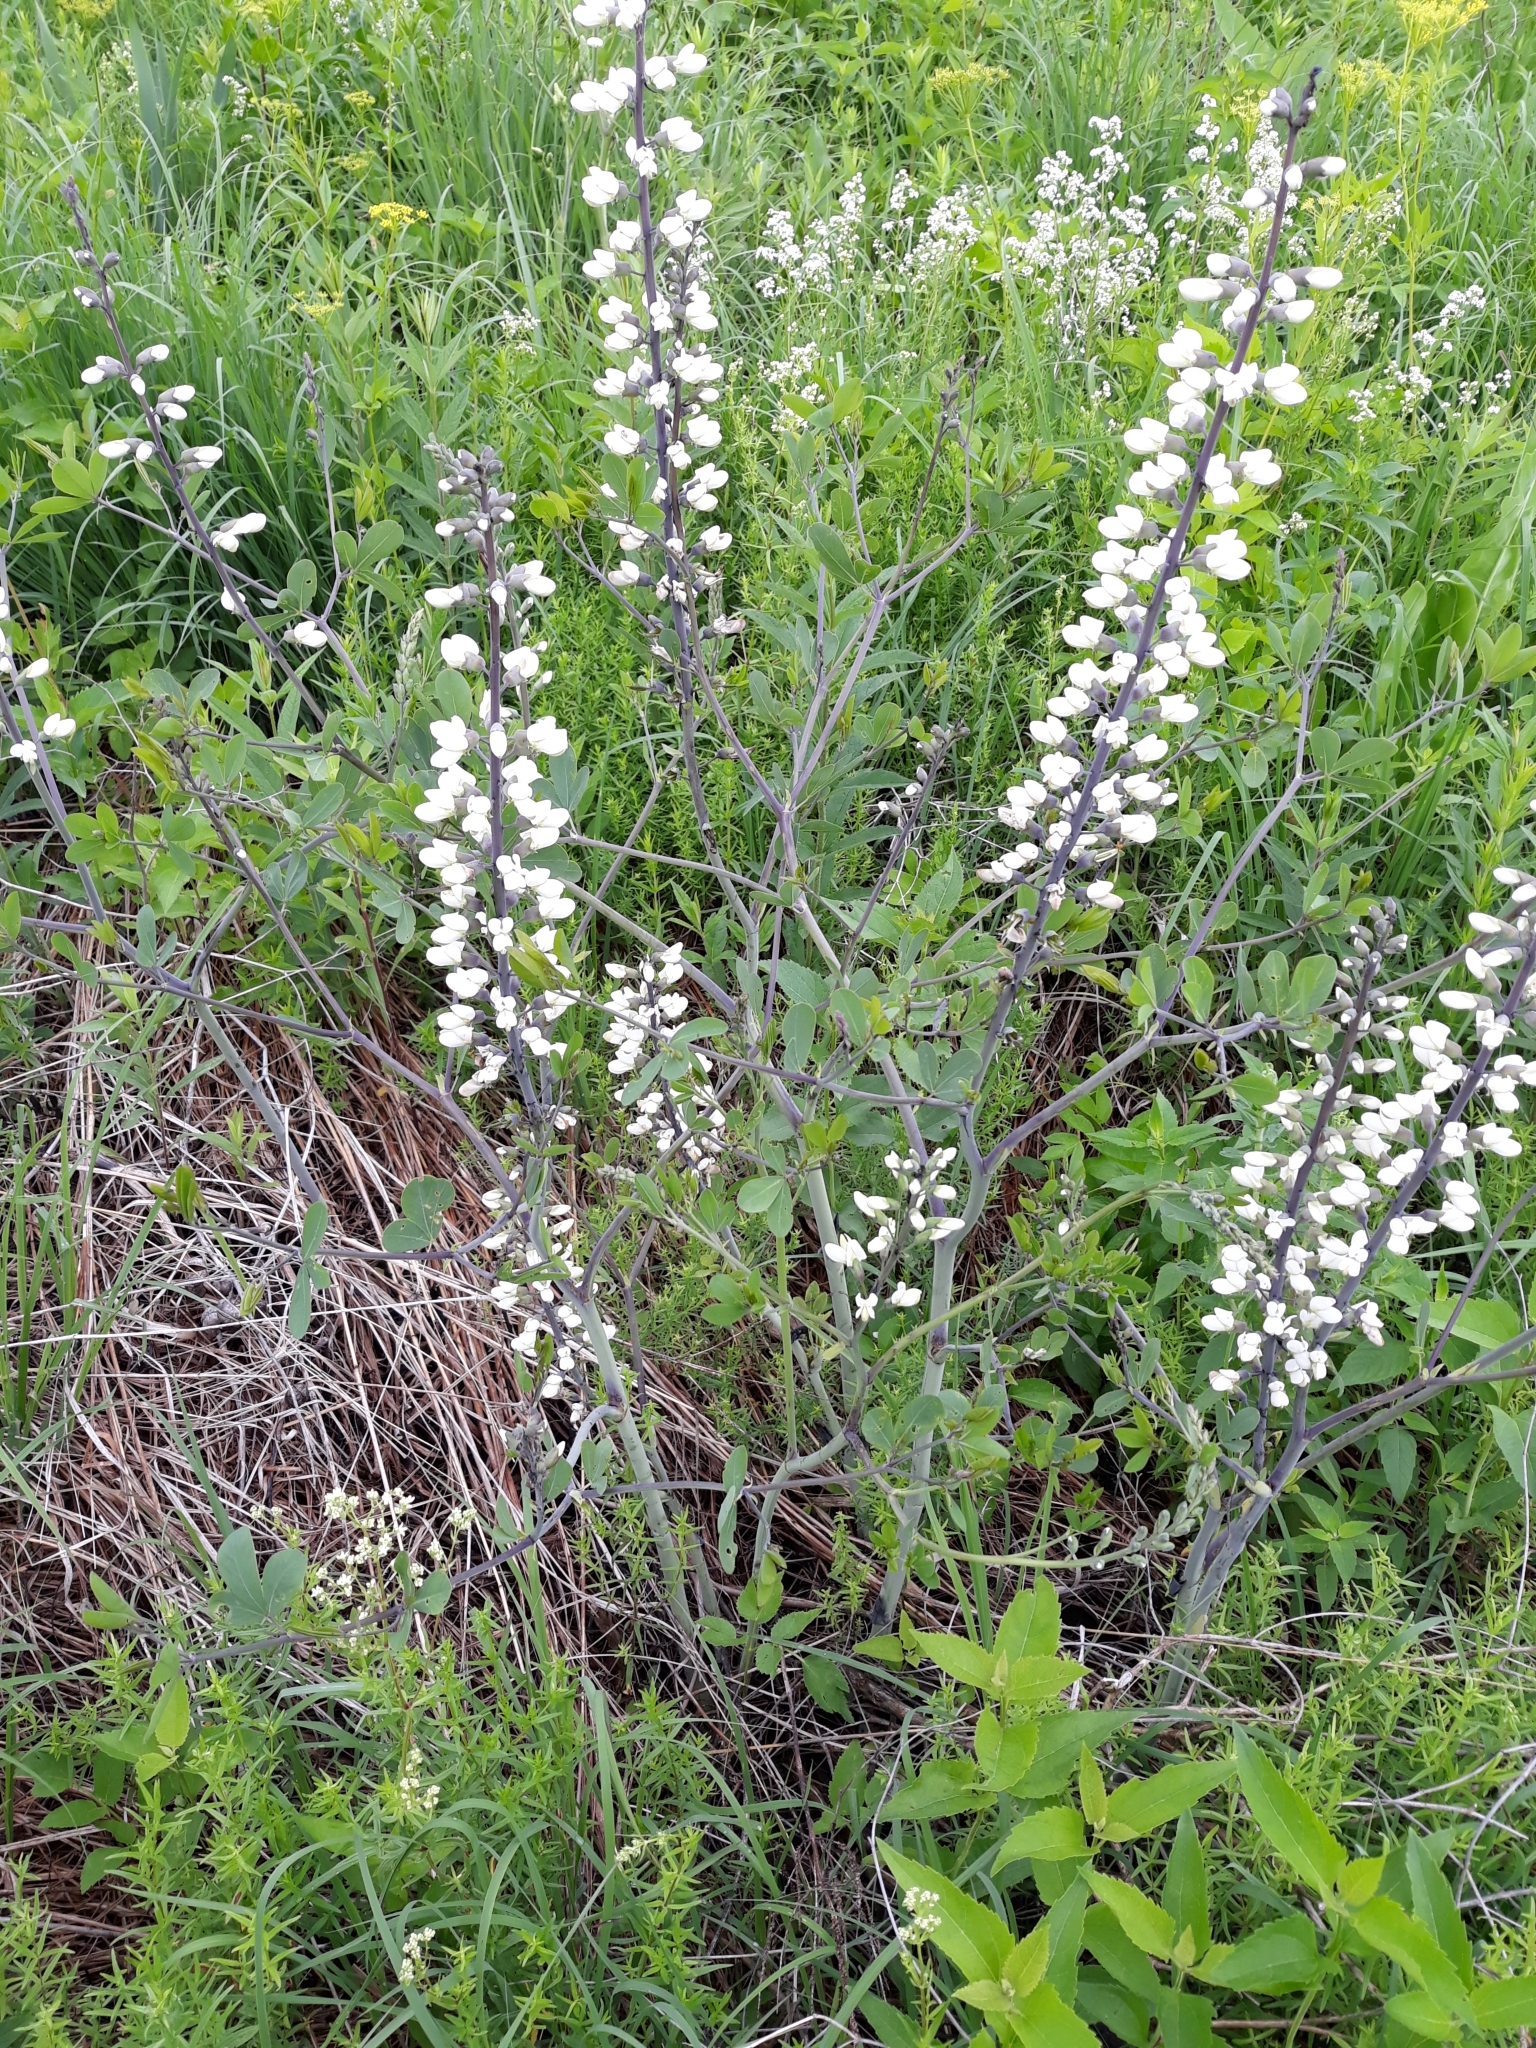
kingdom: Plantae
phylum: Tracheophyta
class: Magnoliopsida
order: Fabales
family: Fabaceae
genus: Baptisia
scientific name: Baptisia alba
